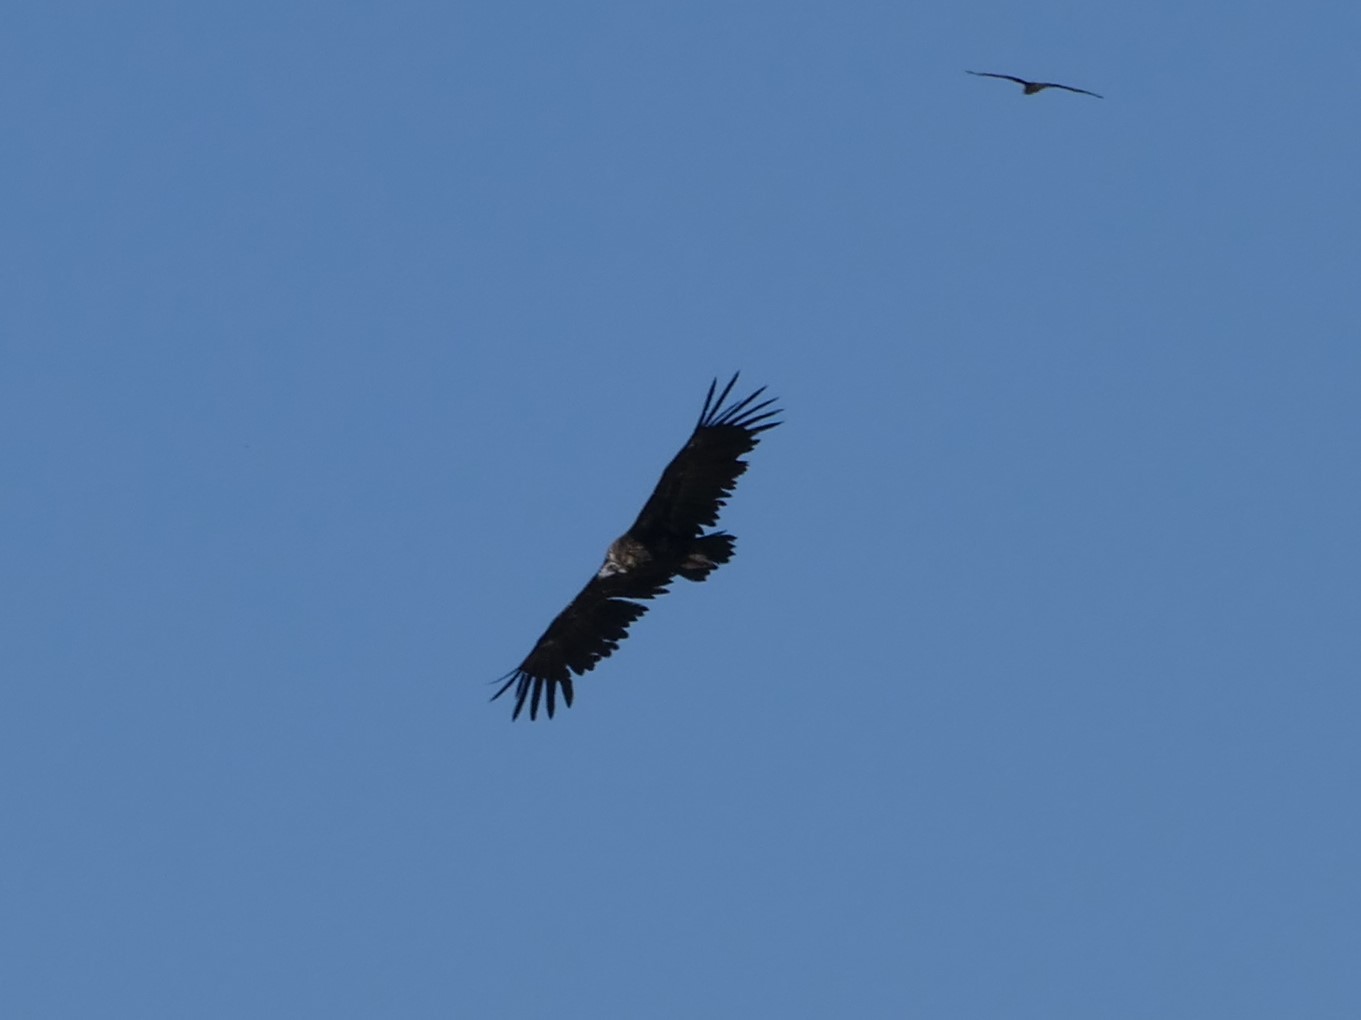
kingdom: Animalia
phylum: Chordata
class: Aves
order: Accipitriformes
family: Accipitridae
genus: Aegypius
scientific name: Aegypius monachus
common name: Cinereous vulture
